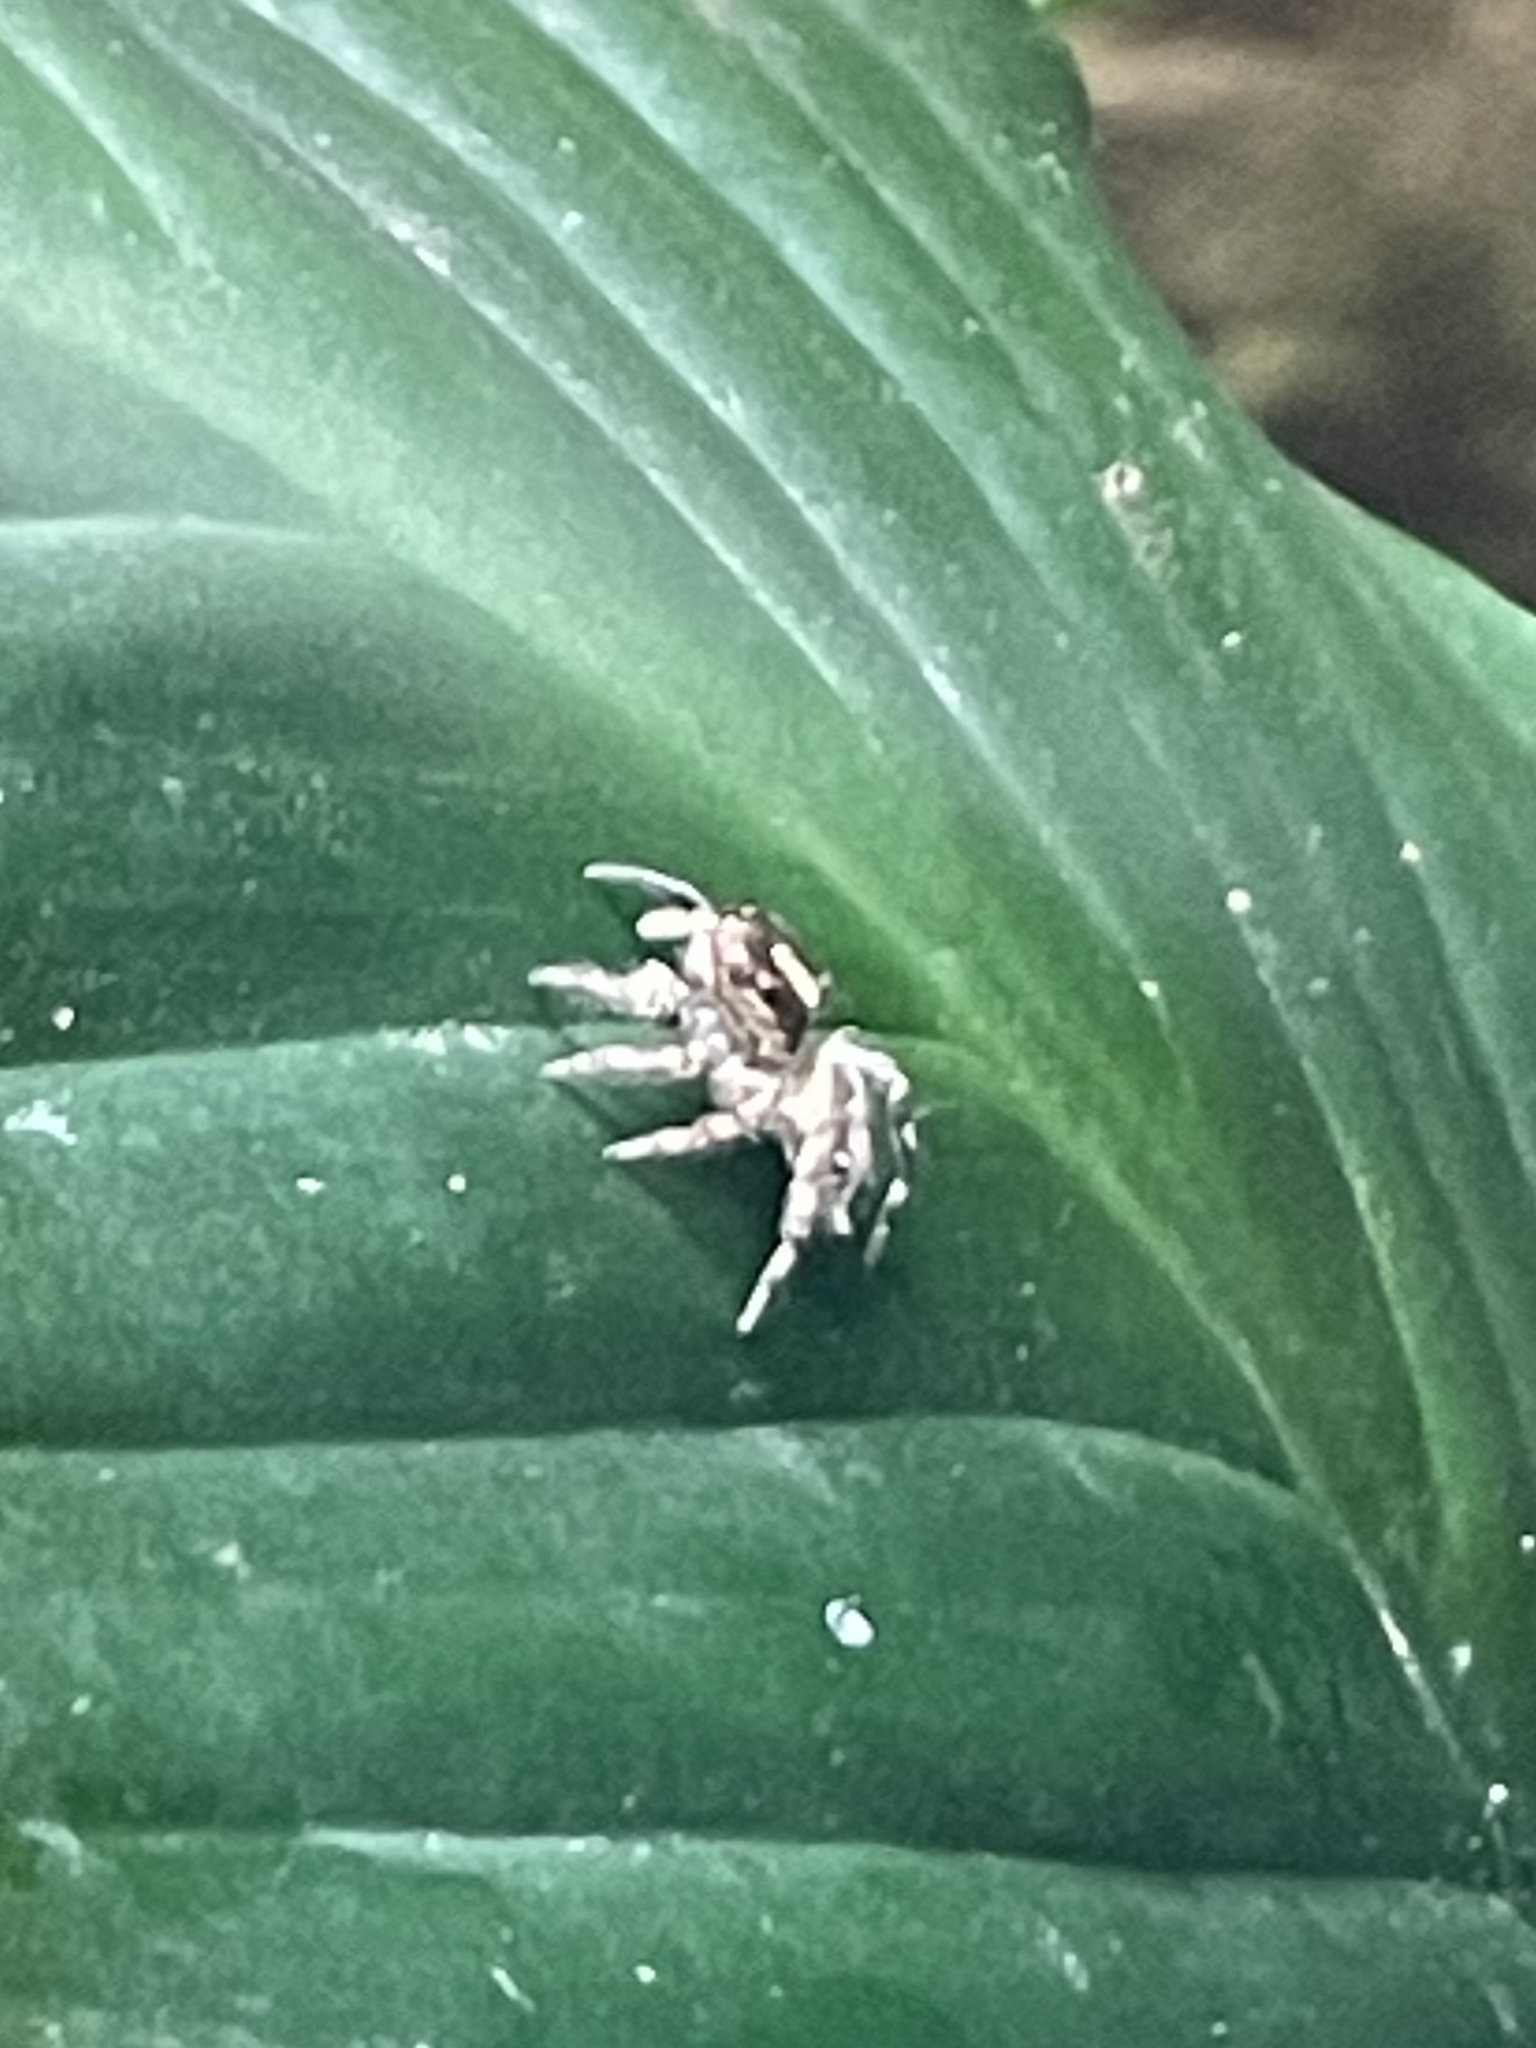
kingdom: Animalia
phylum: Arthropoda
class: Arachnida
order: Araneae
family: Salticidae
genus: Plexippus
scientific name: Plexippus paykulli
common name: Pantropical jumper
